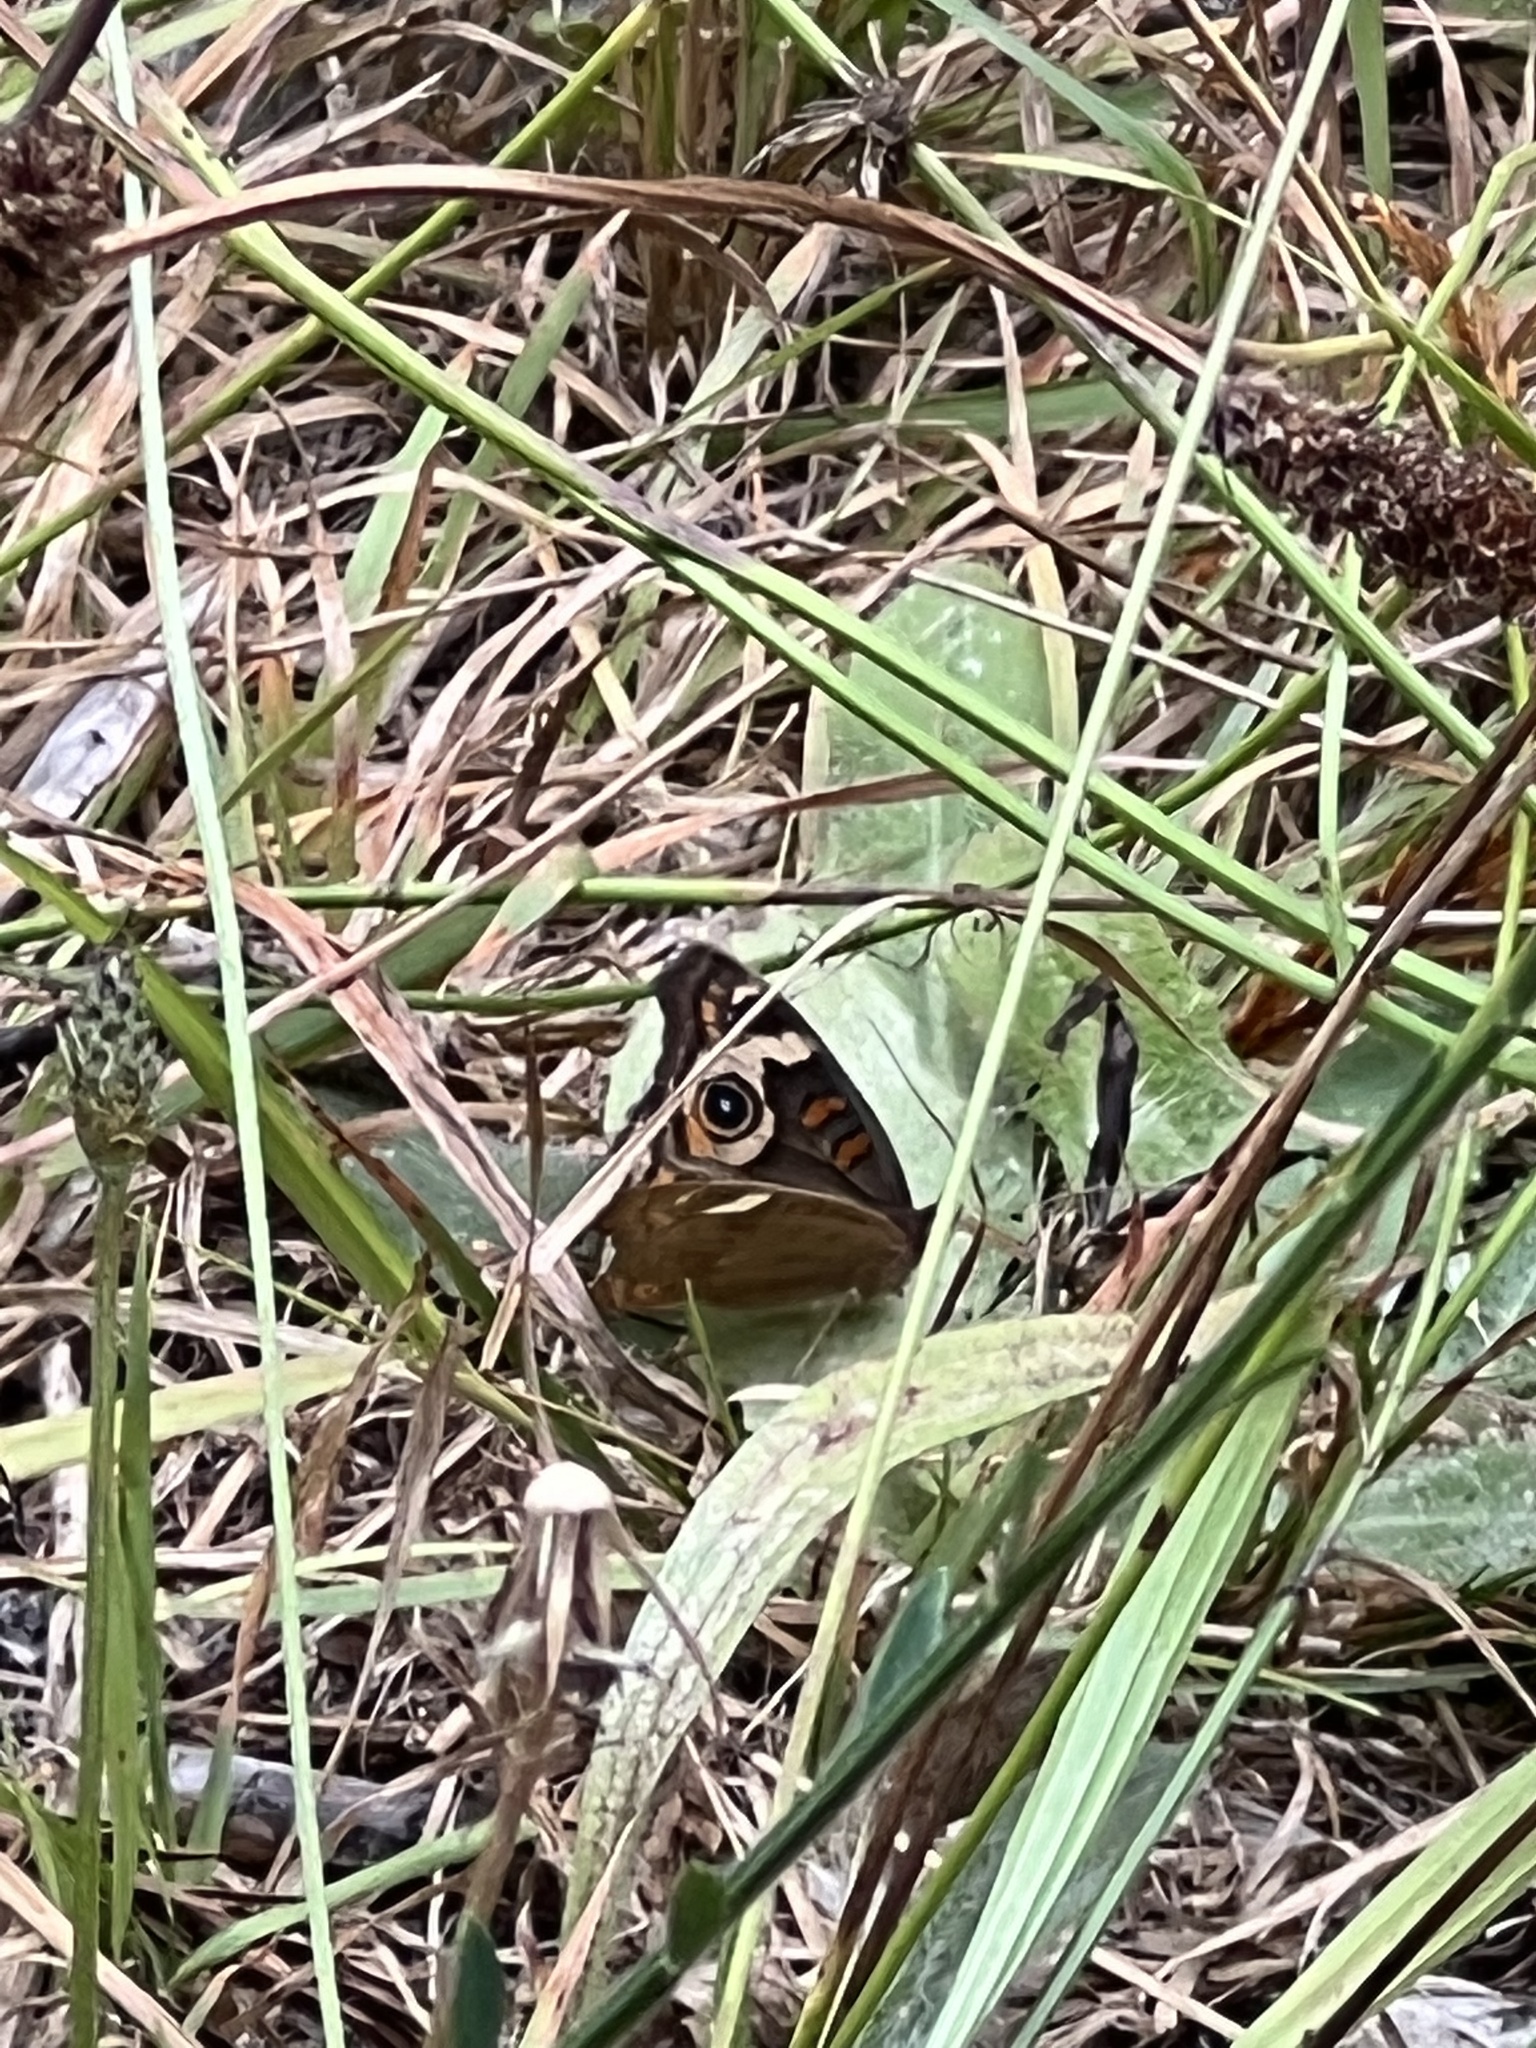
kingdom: Animalia
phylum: Arthropoda
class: Insecta
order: Lepidoptera
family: Nymphalidae
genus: Junonia
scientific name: Junonia grisea
